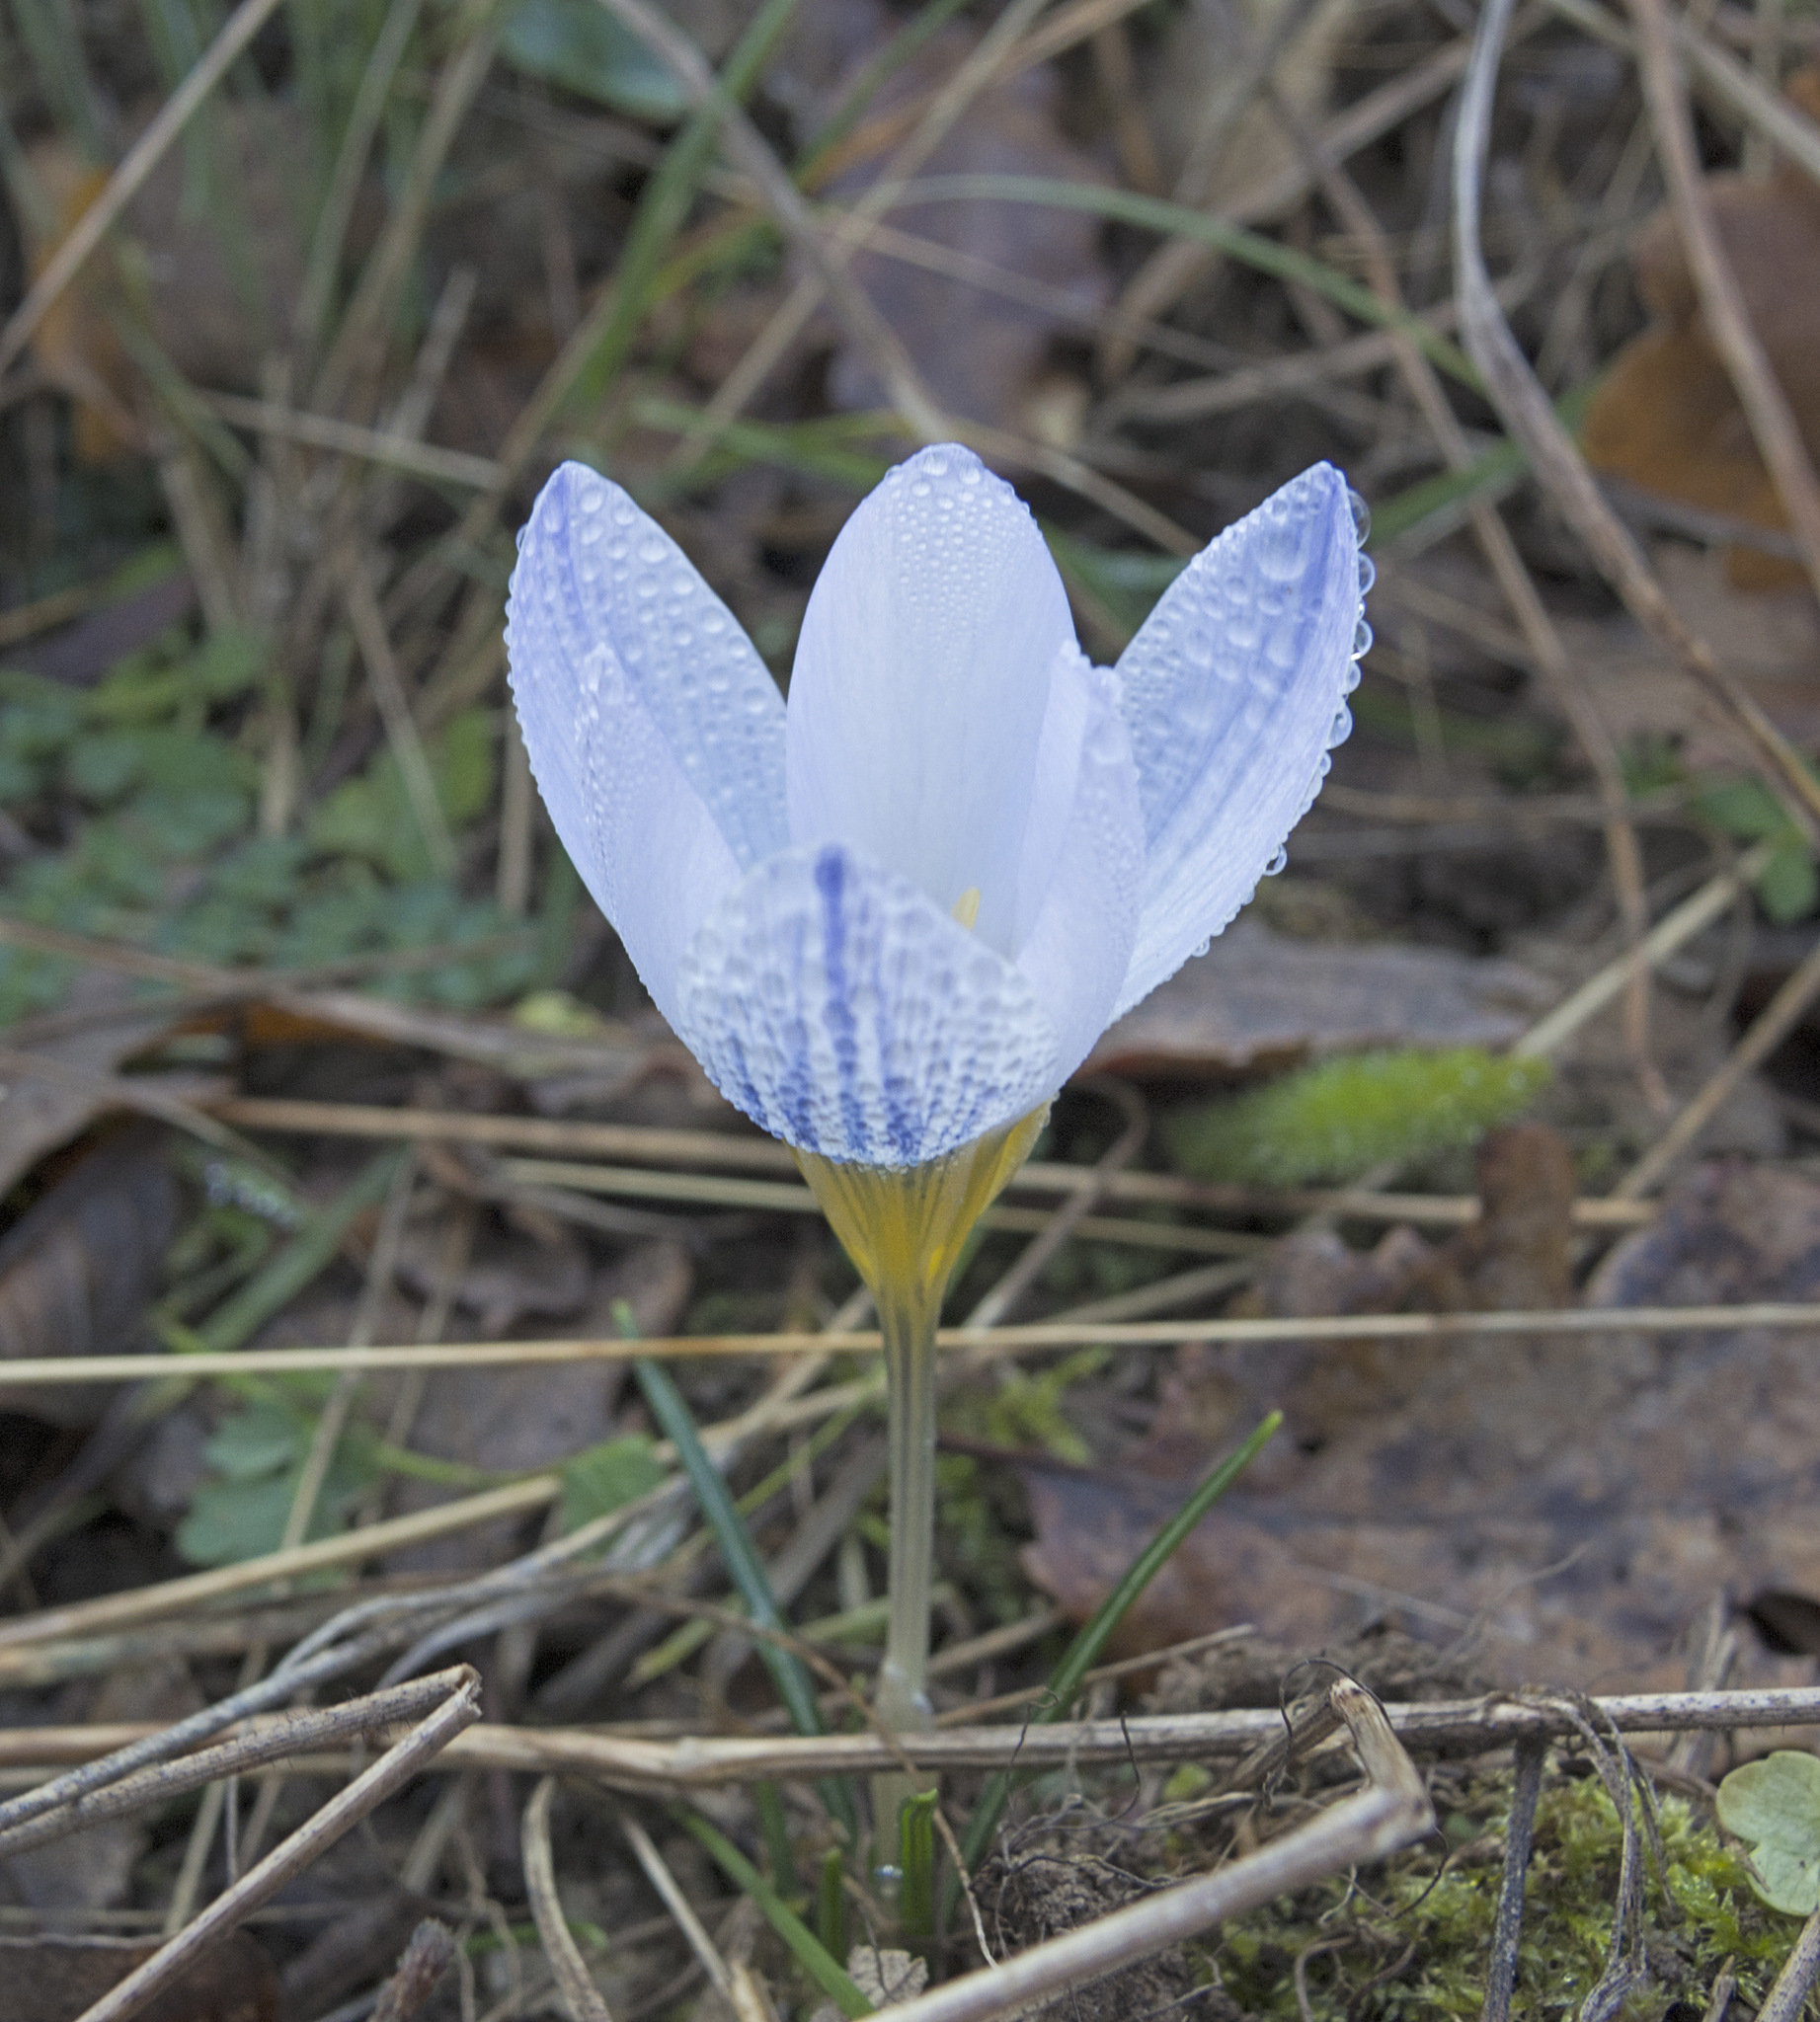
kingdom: Plantae
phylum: Tracheophyta
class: Liliopsida
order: Asparagales
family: Iridaceae
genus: Crocus
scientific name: Crocus adamioides
